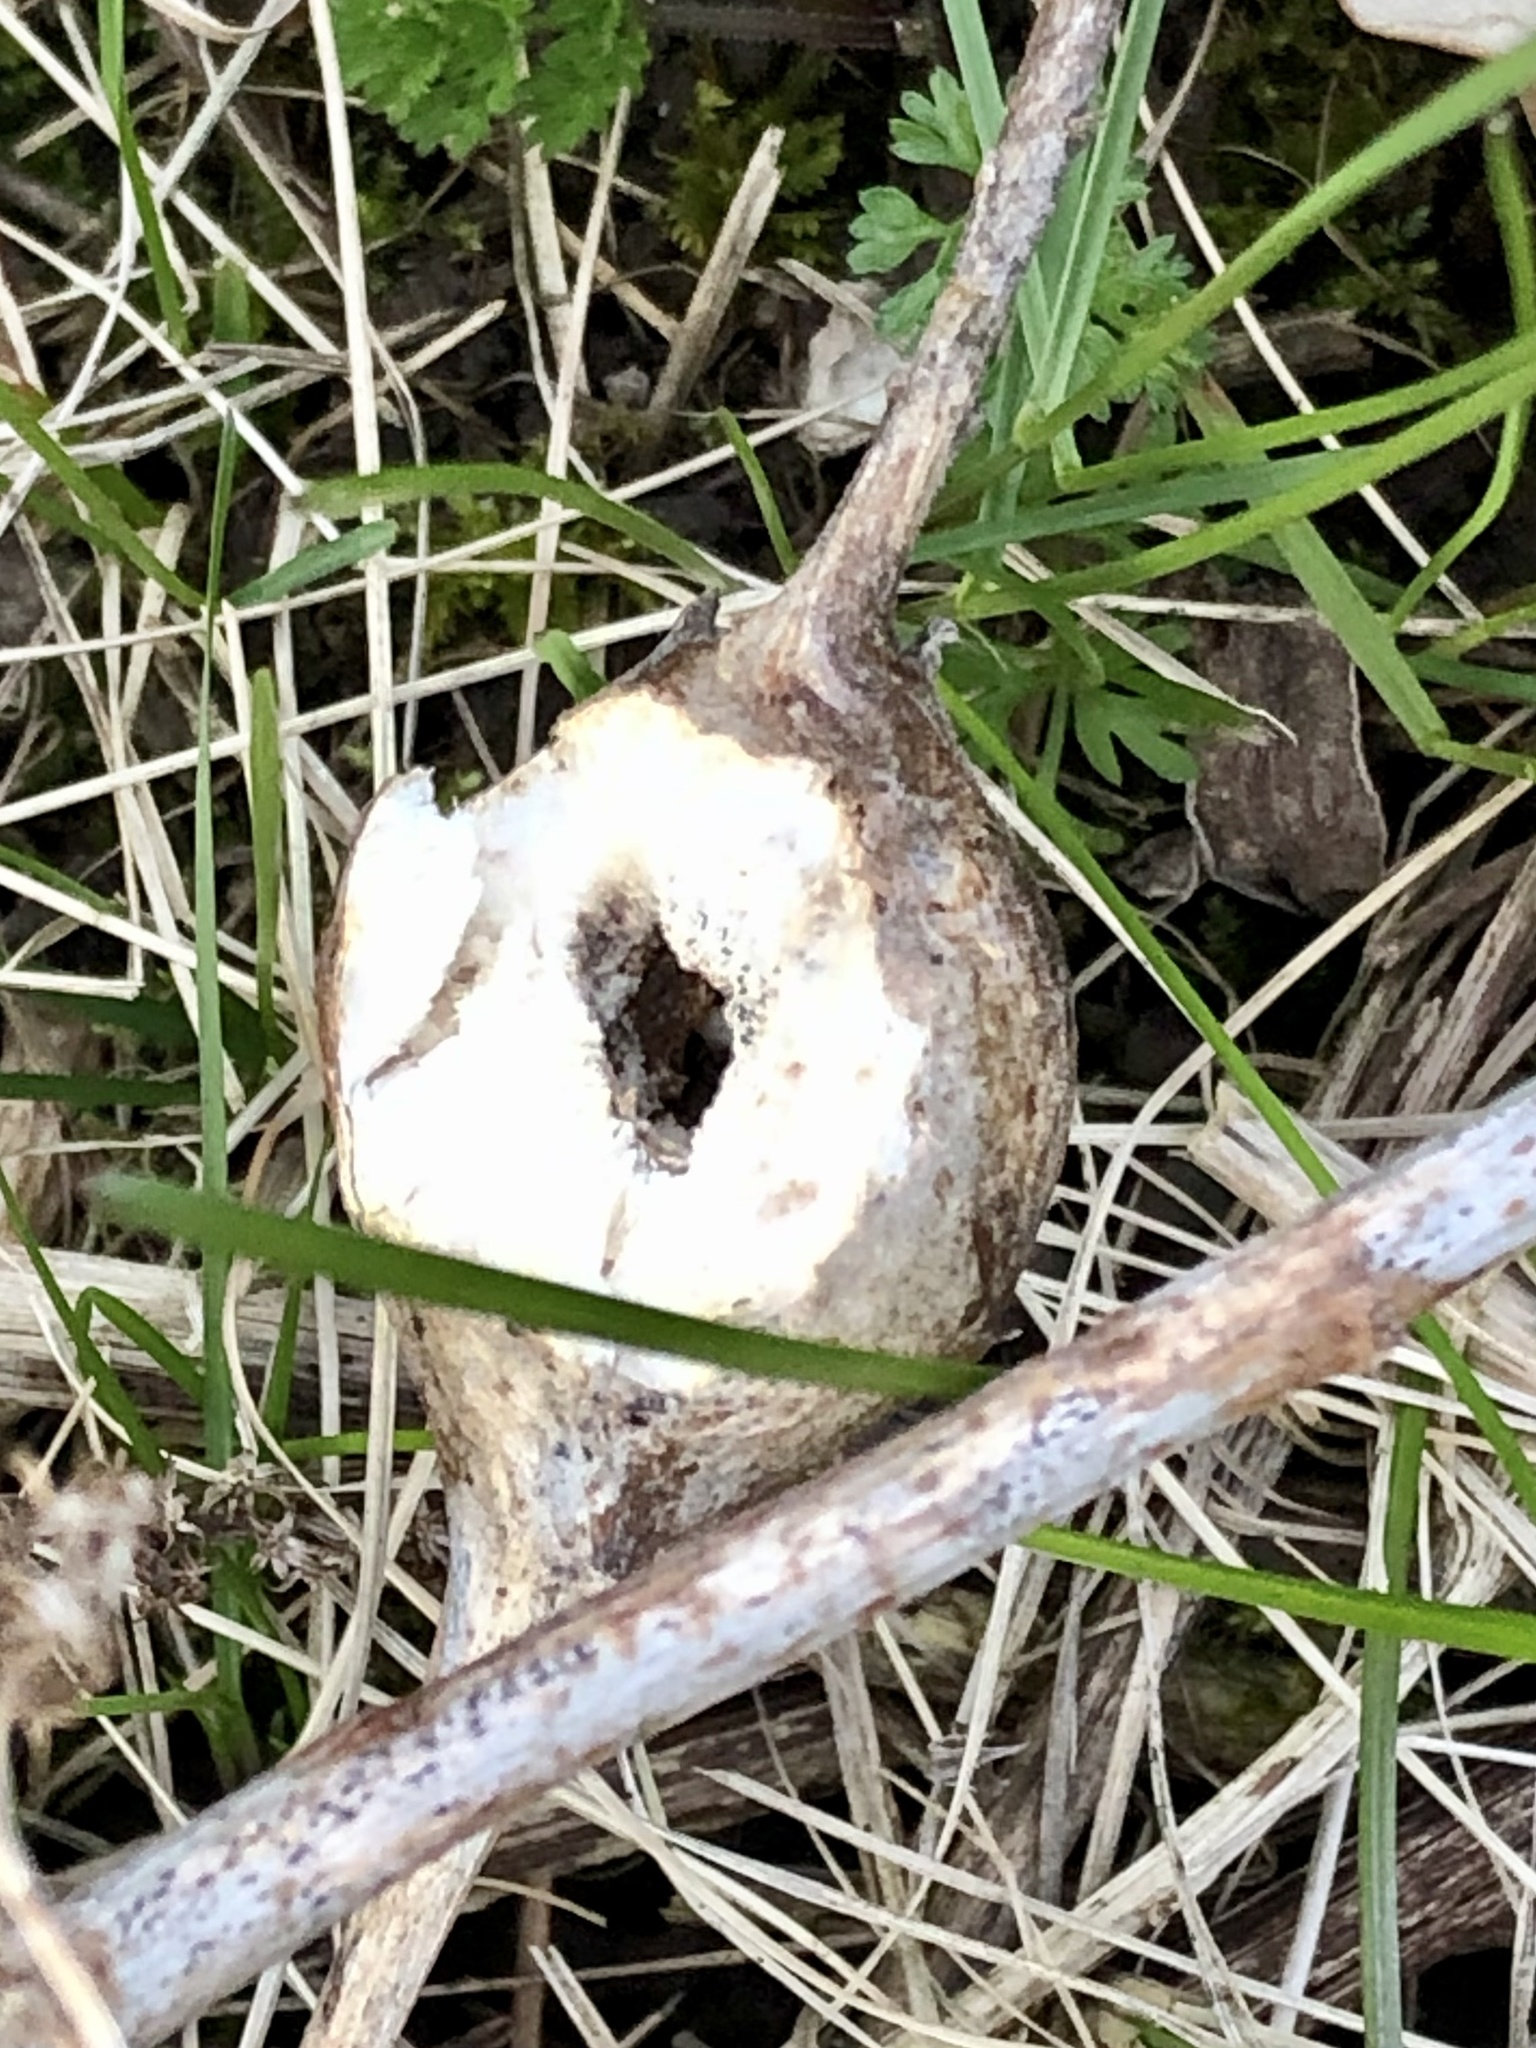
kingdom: Animalia
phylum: Arthropoda
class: Insecta
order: Diptera
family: Tephritidae
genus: Eurosta
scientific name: Eurosta solidaginis
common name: Goldenrod gall fly
